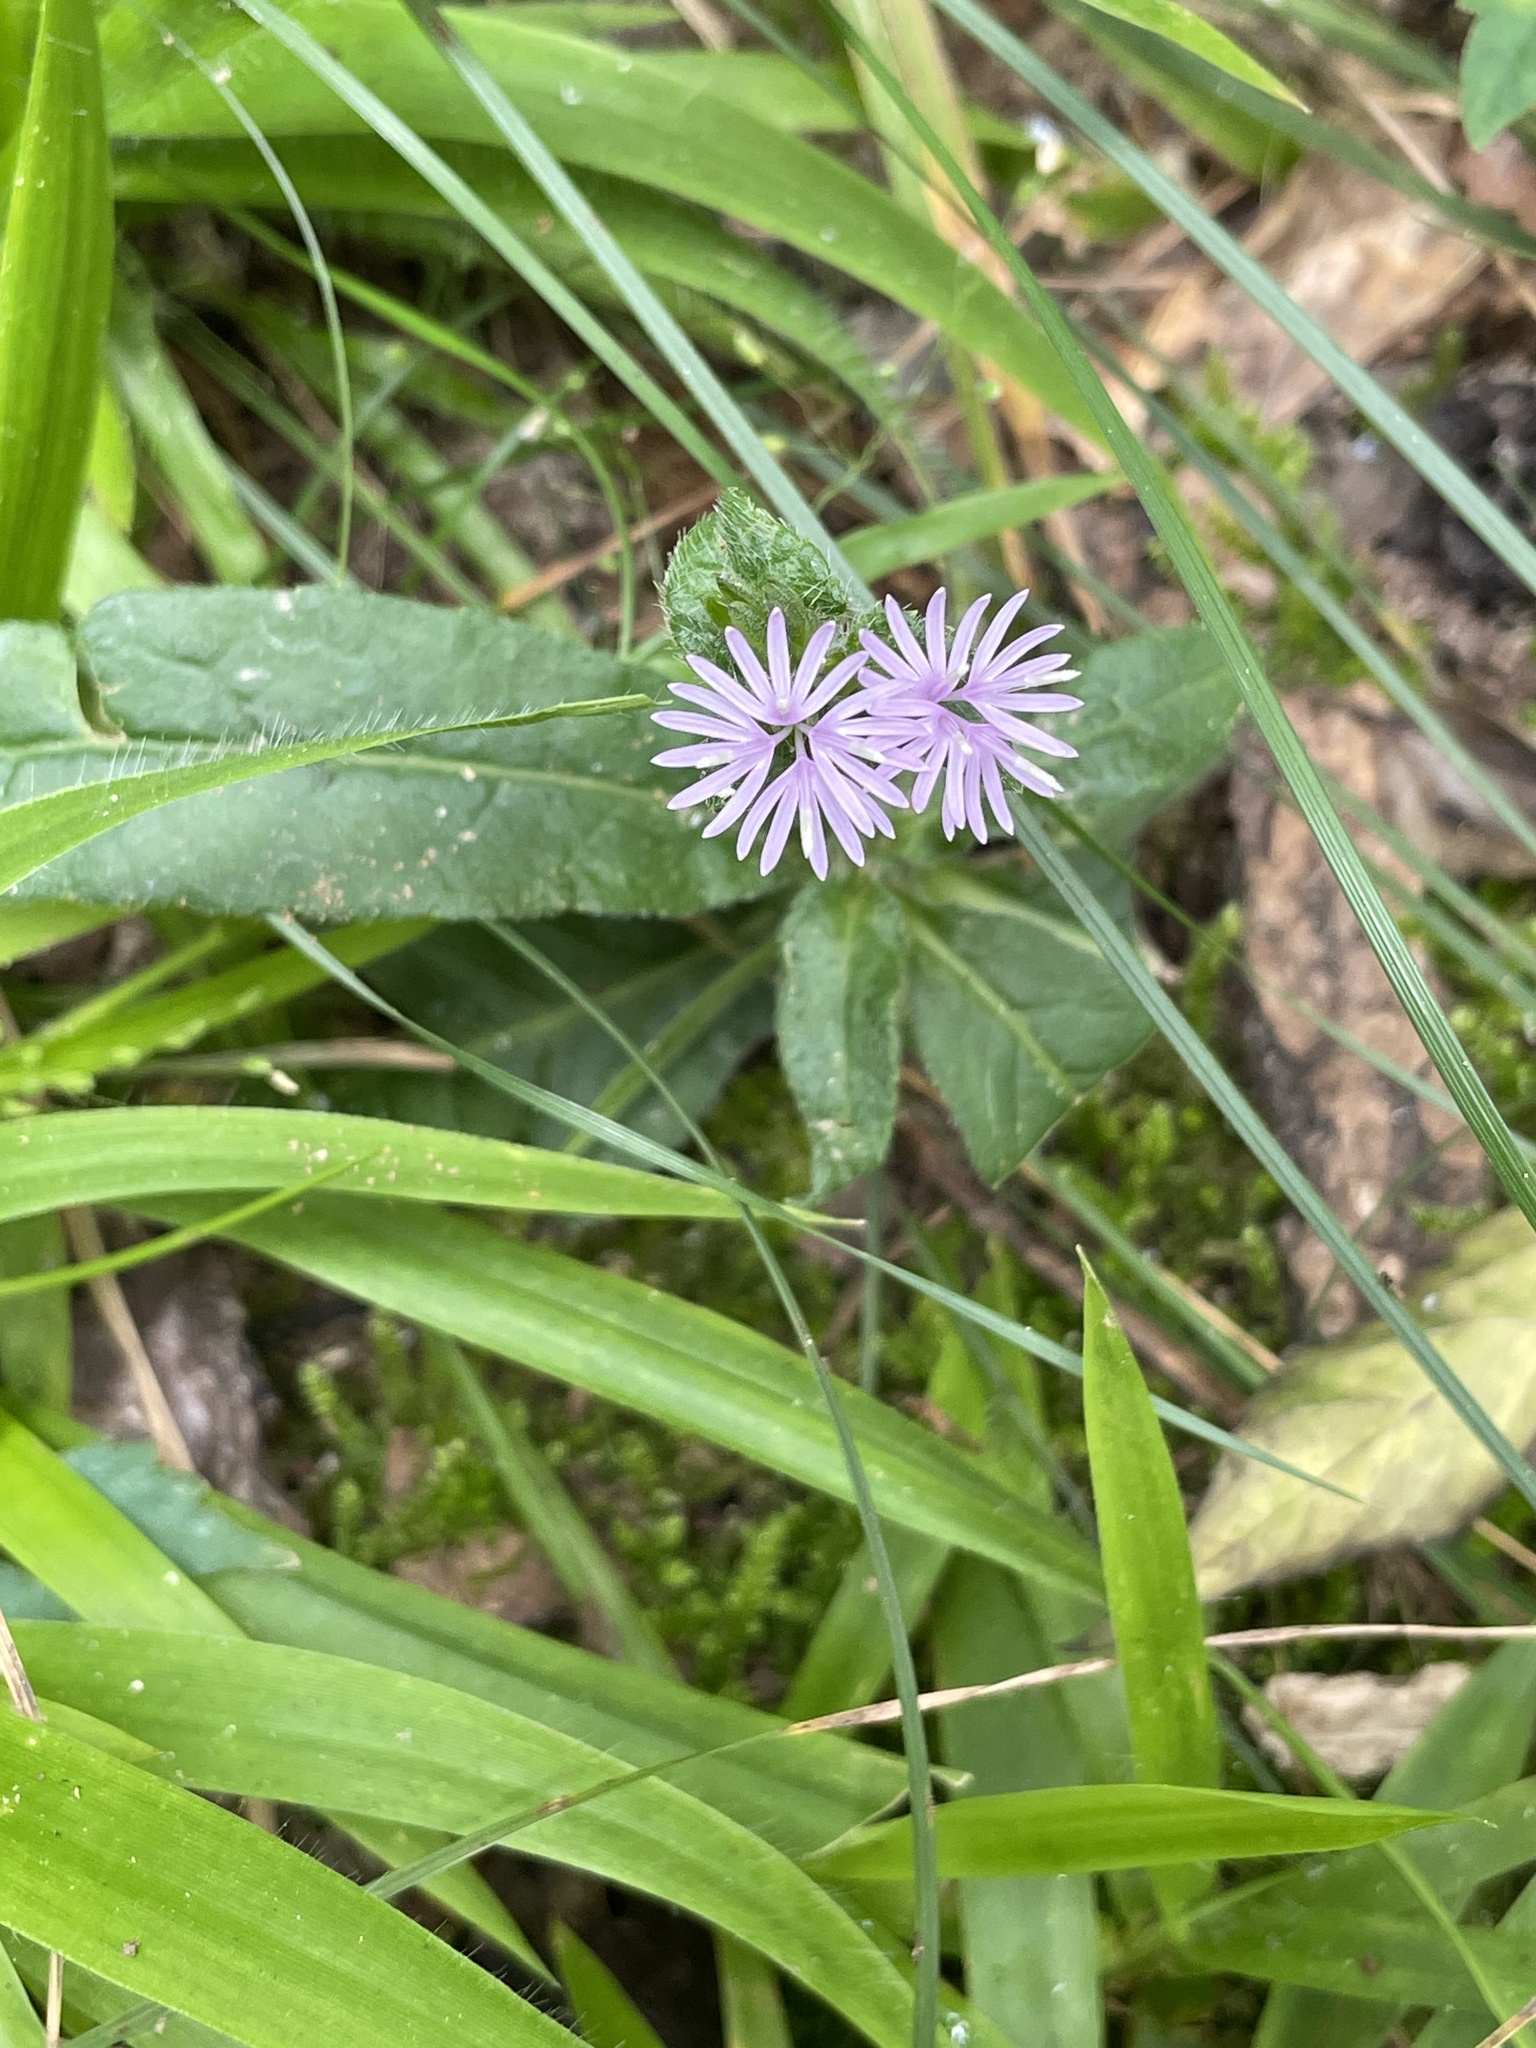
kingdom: Plantae
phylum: Tracheophyta
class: Magnoliopsida
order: Asterales
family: Asteraceae
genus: Elephantopus
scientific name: Elephantopus carolinianus
